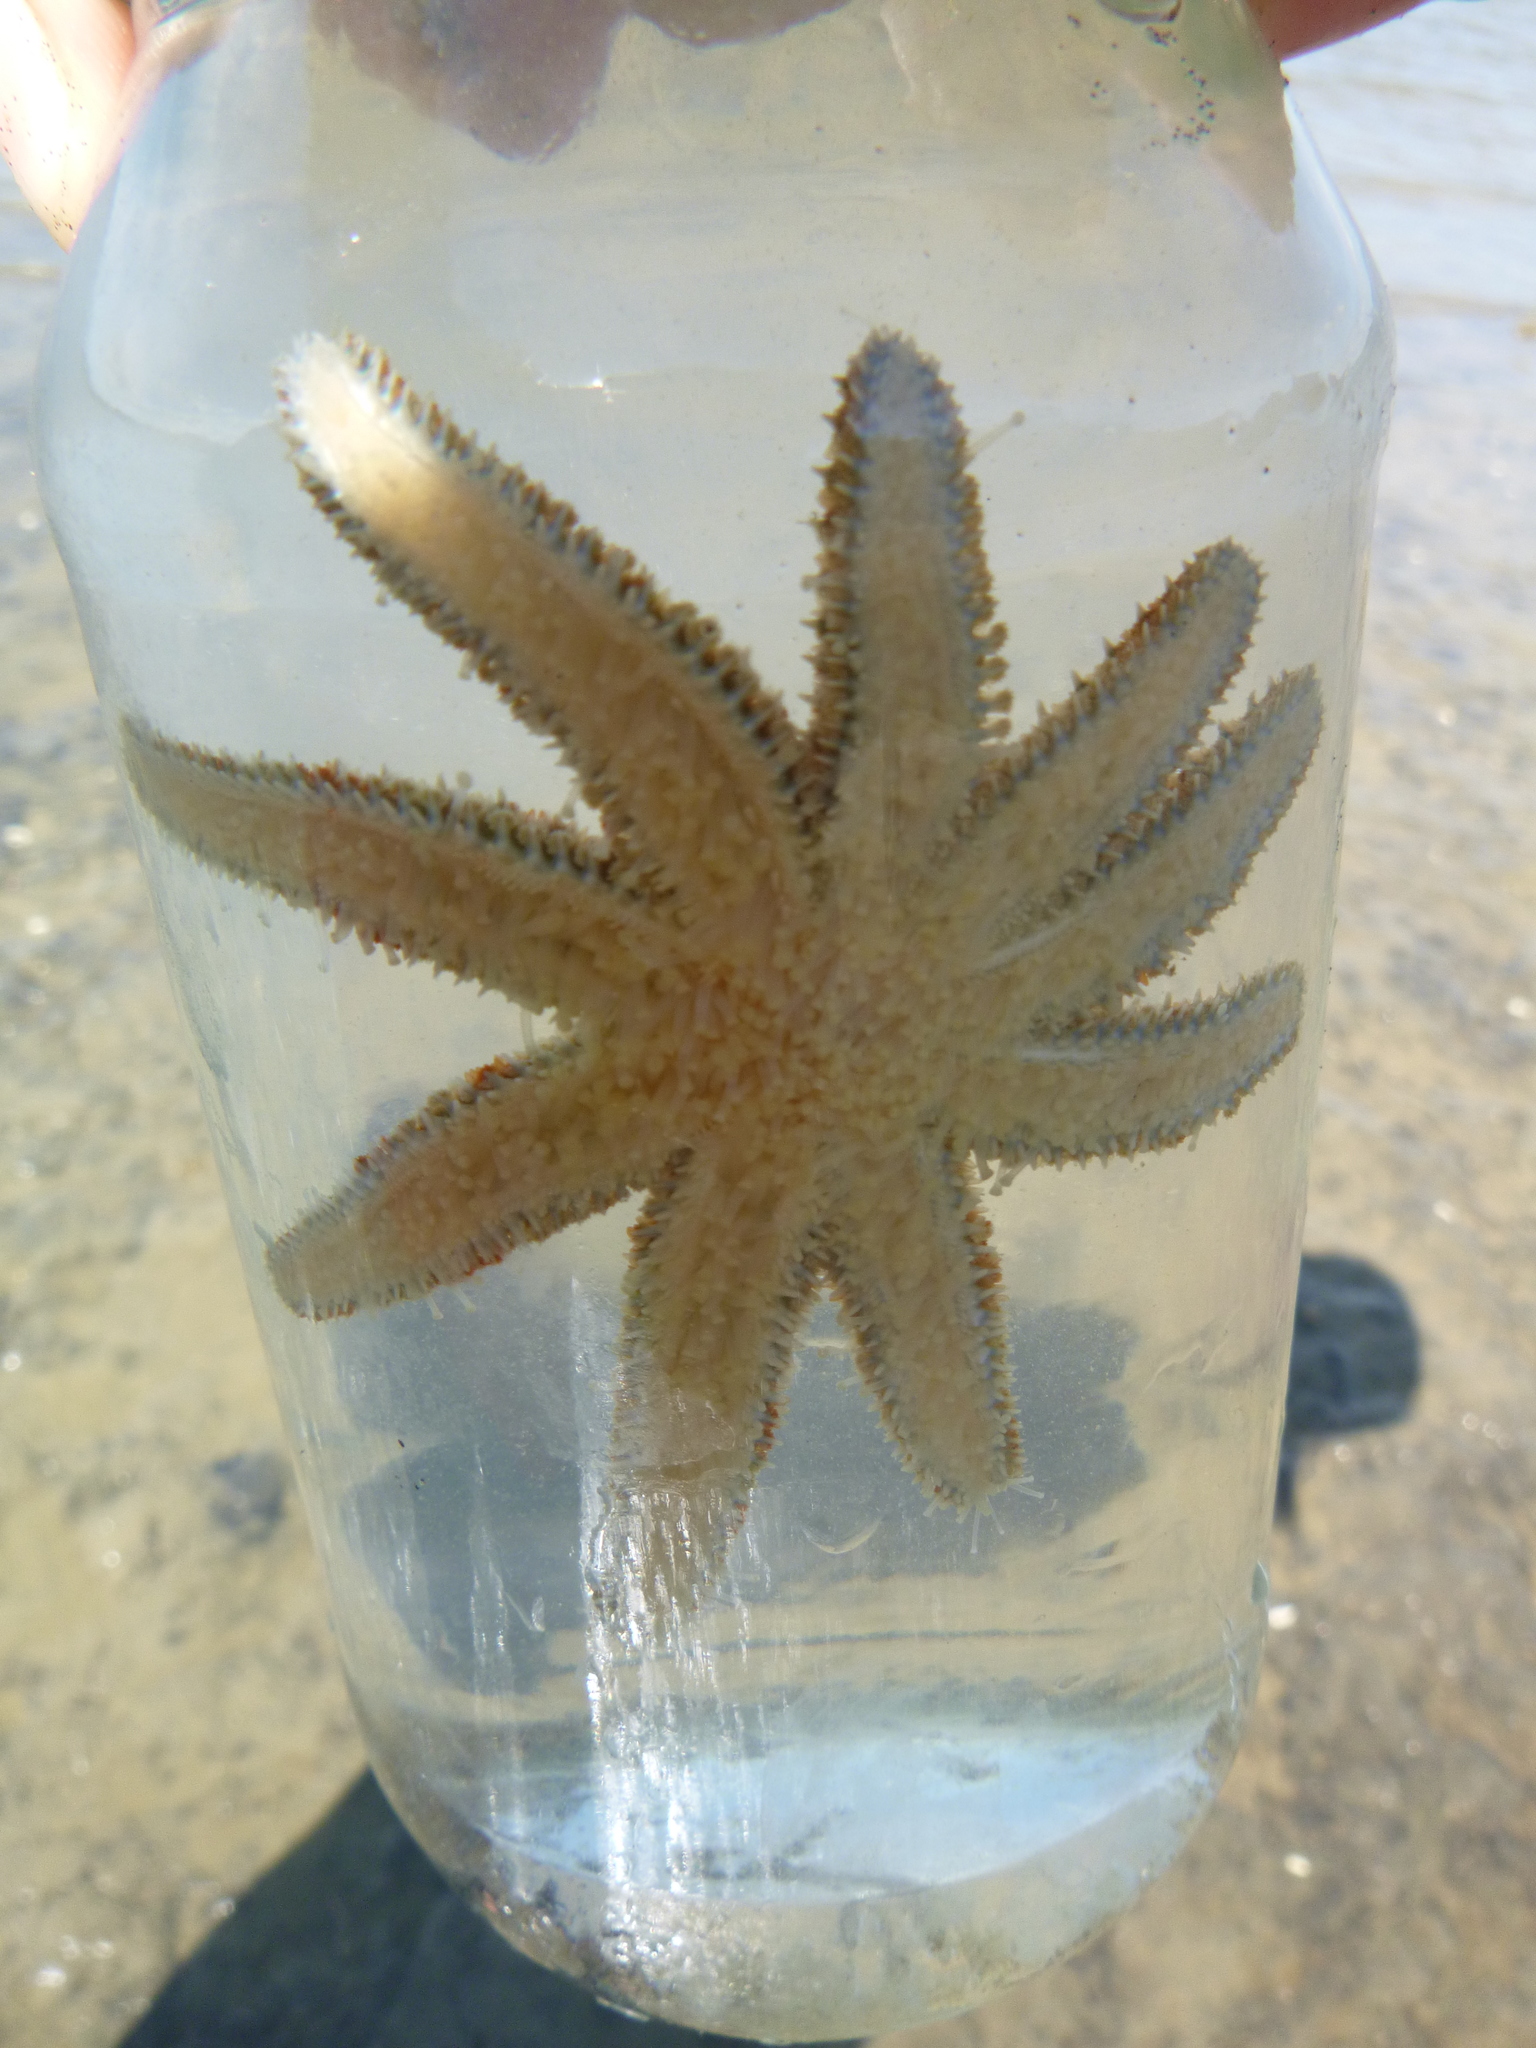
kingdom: Animalia
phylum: Echinodermata
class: Asteroidea
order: Forcipulatida
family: Asteriidae
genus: Coscinasterias
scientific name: Coscinasterias muricata
